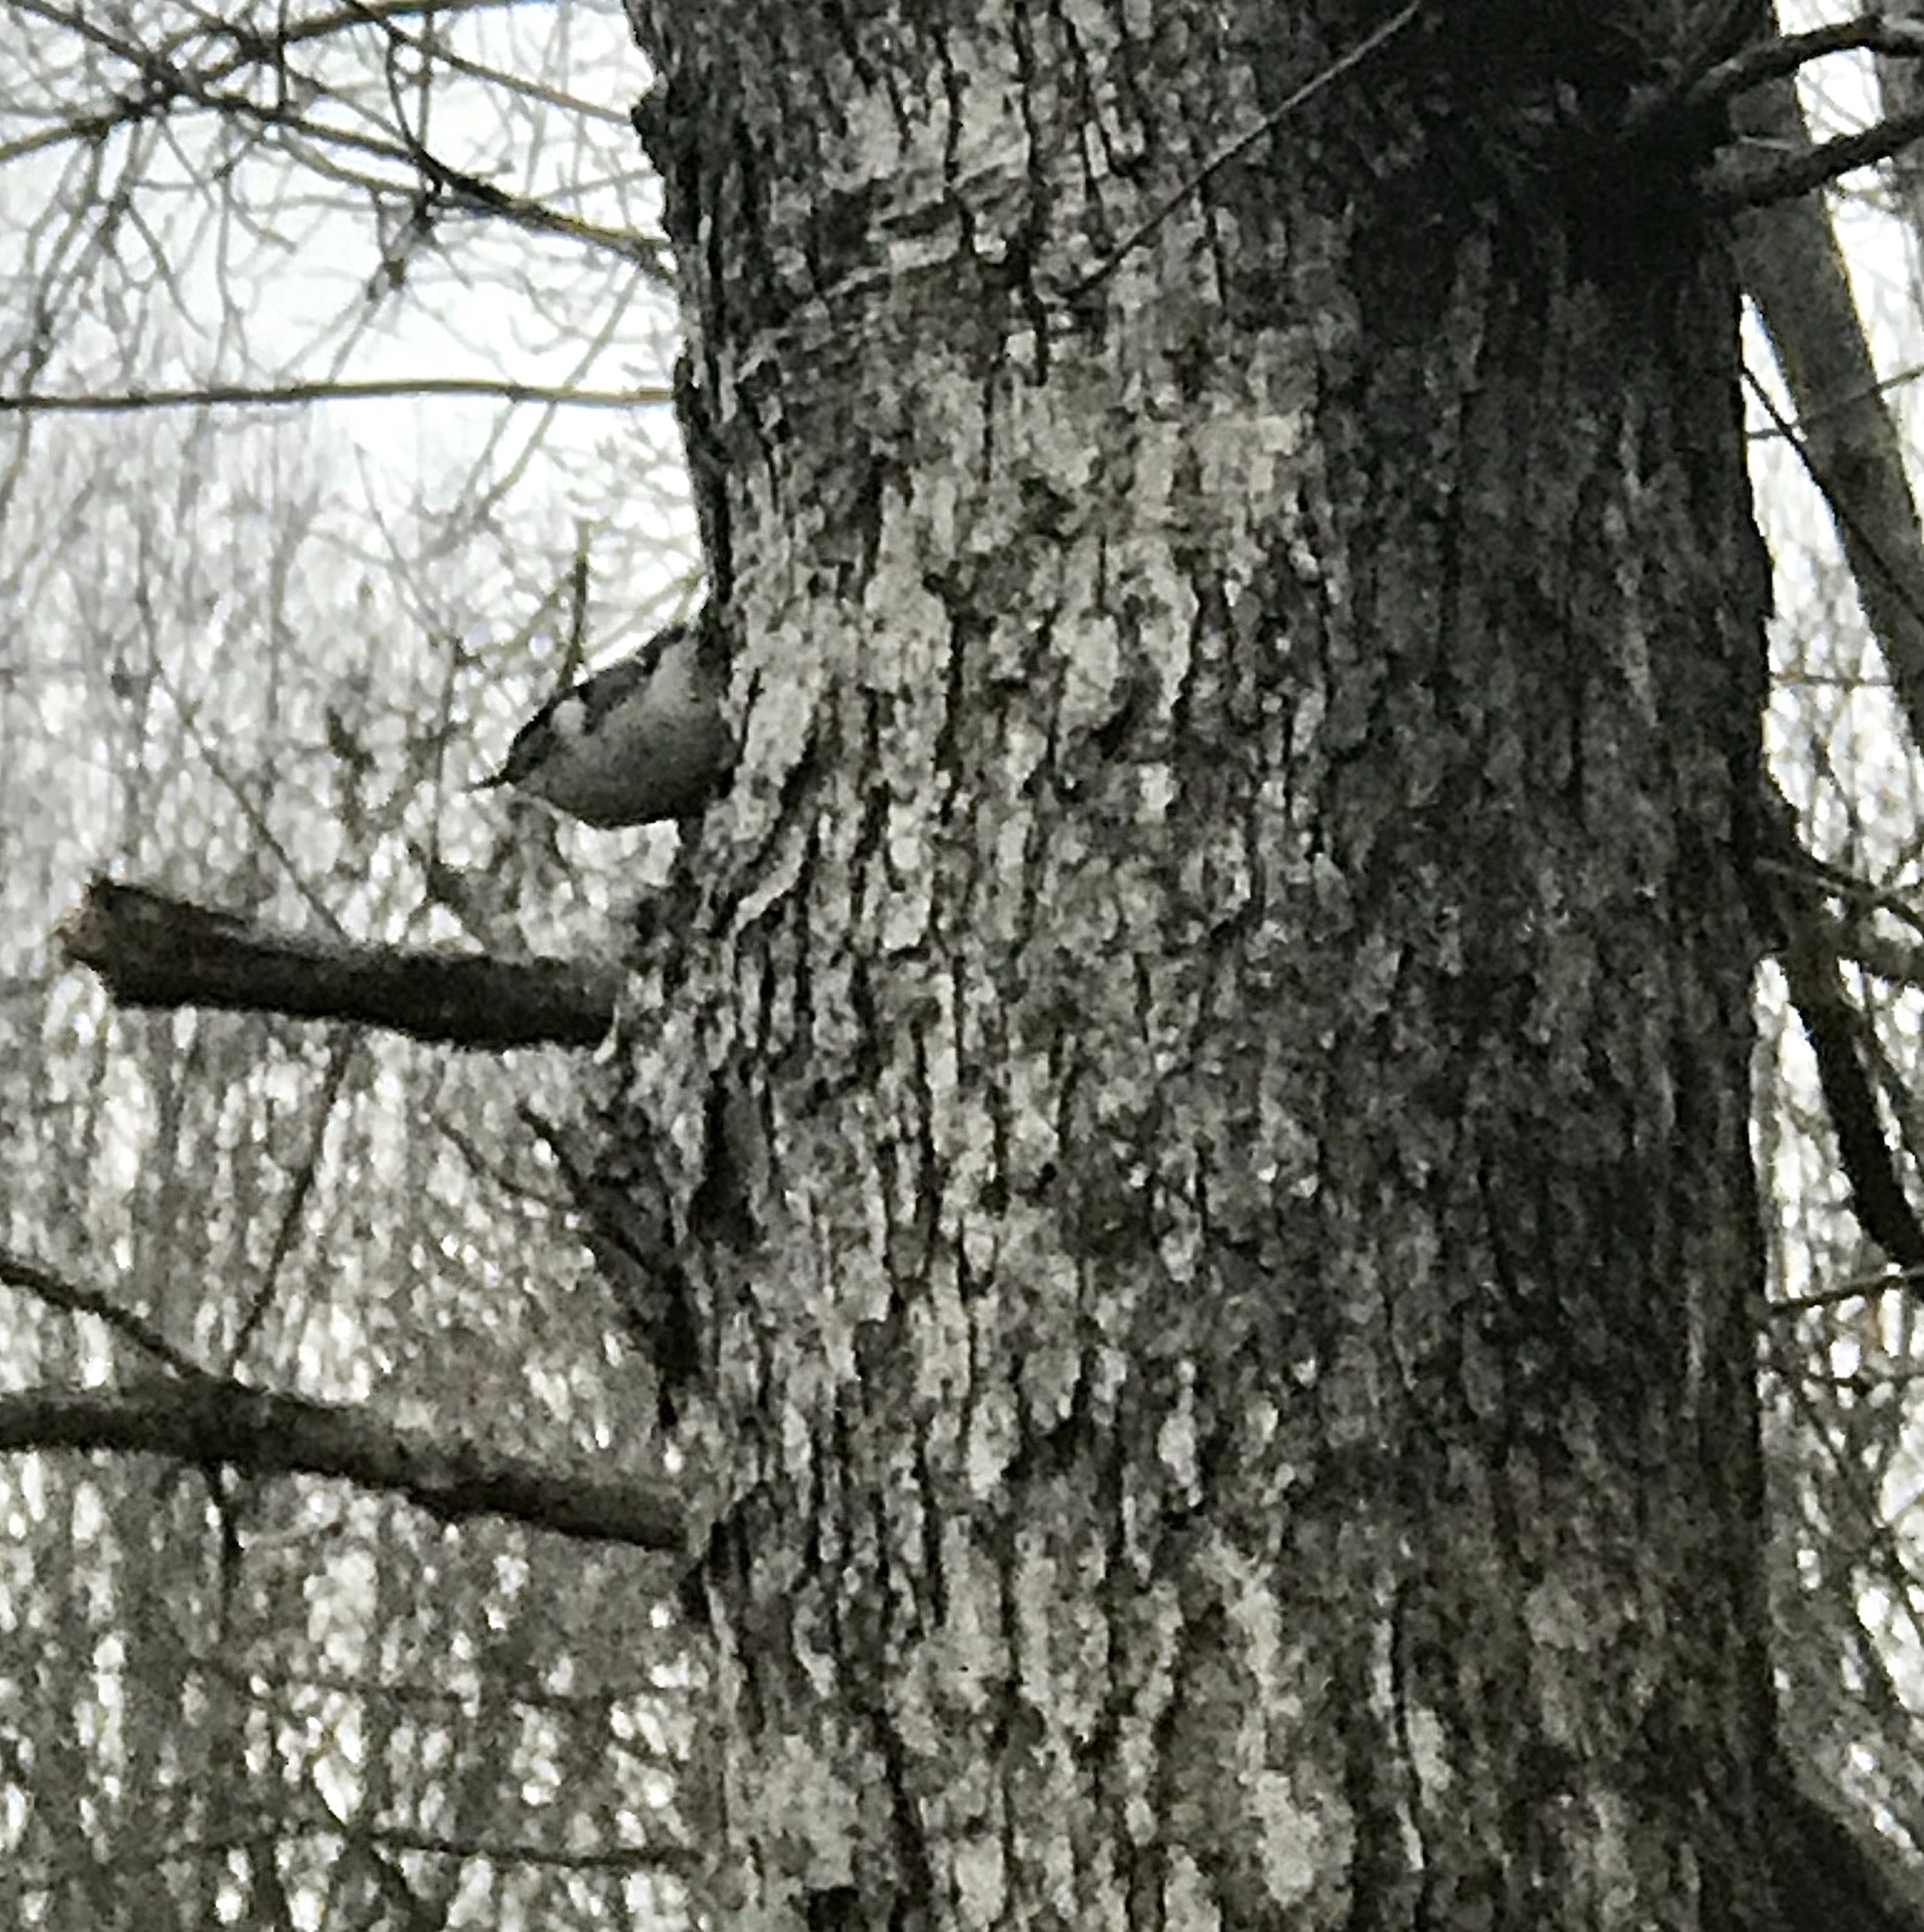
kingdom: Animalia
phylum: Chordata
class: Aves
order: Passeriformes
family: Sittidae
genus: Sitta
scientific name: Sitta carolinensis
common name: White-breasted nuthatch
